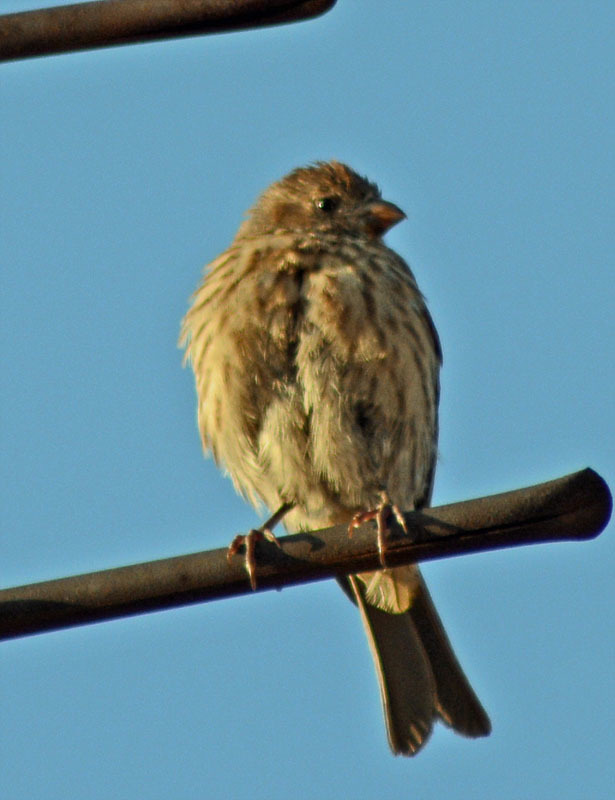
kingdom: Animalia
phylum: Chordata
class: Aves
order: Passeriformes
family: Fringillidae
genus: Haemorhous
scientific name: Haemorhous mexicanus
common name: House finch
